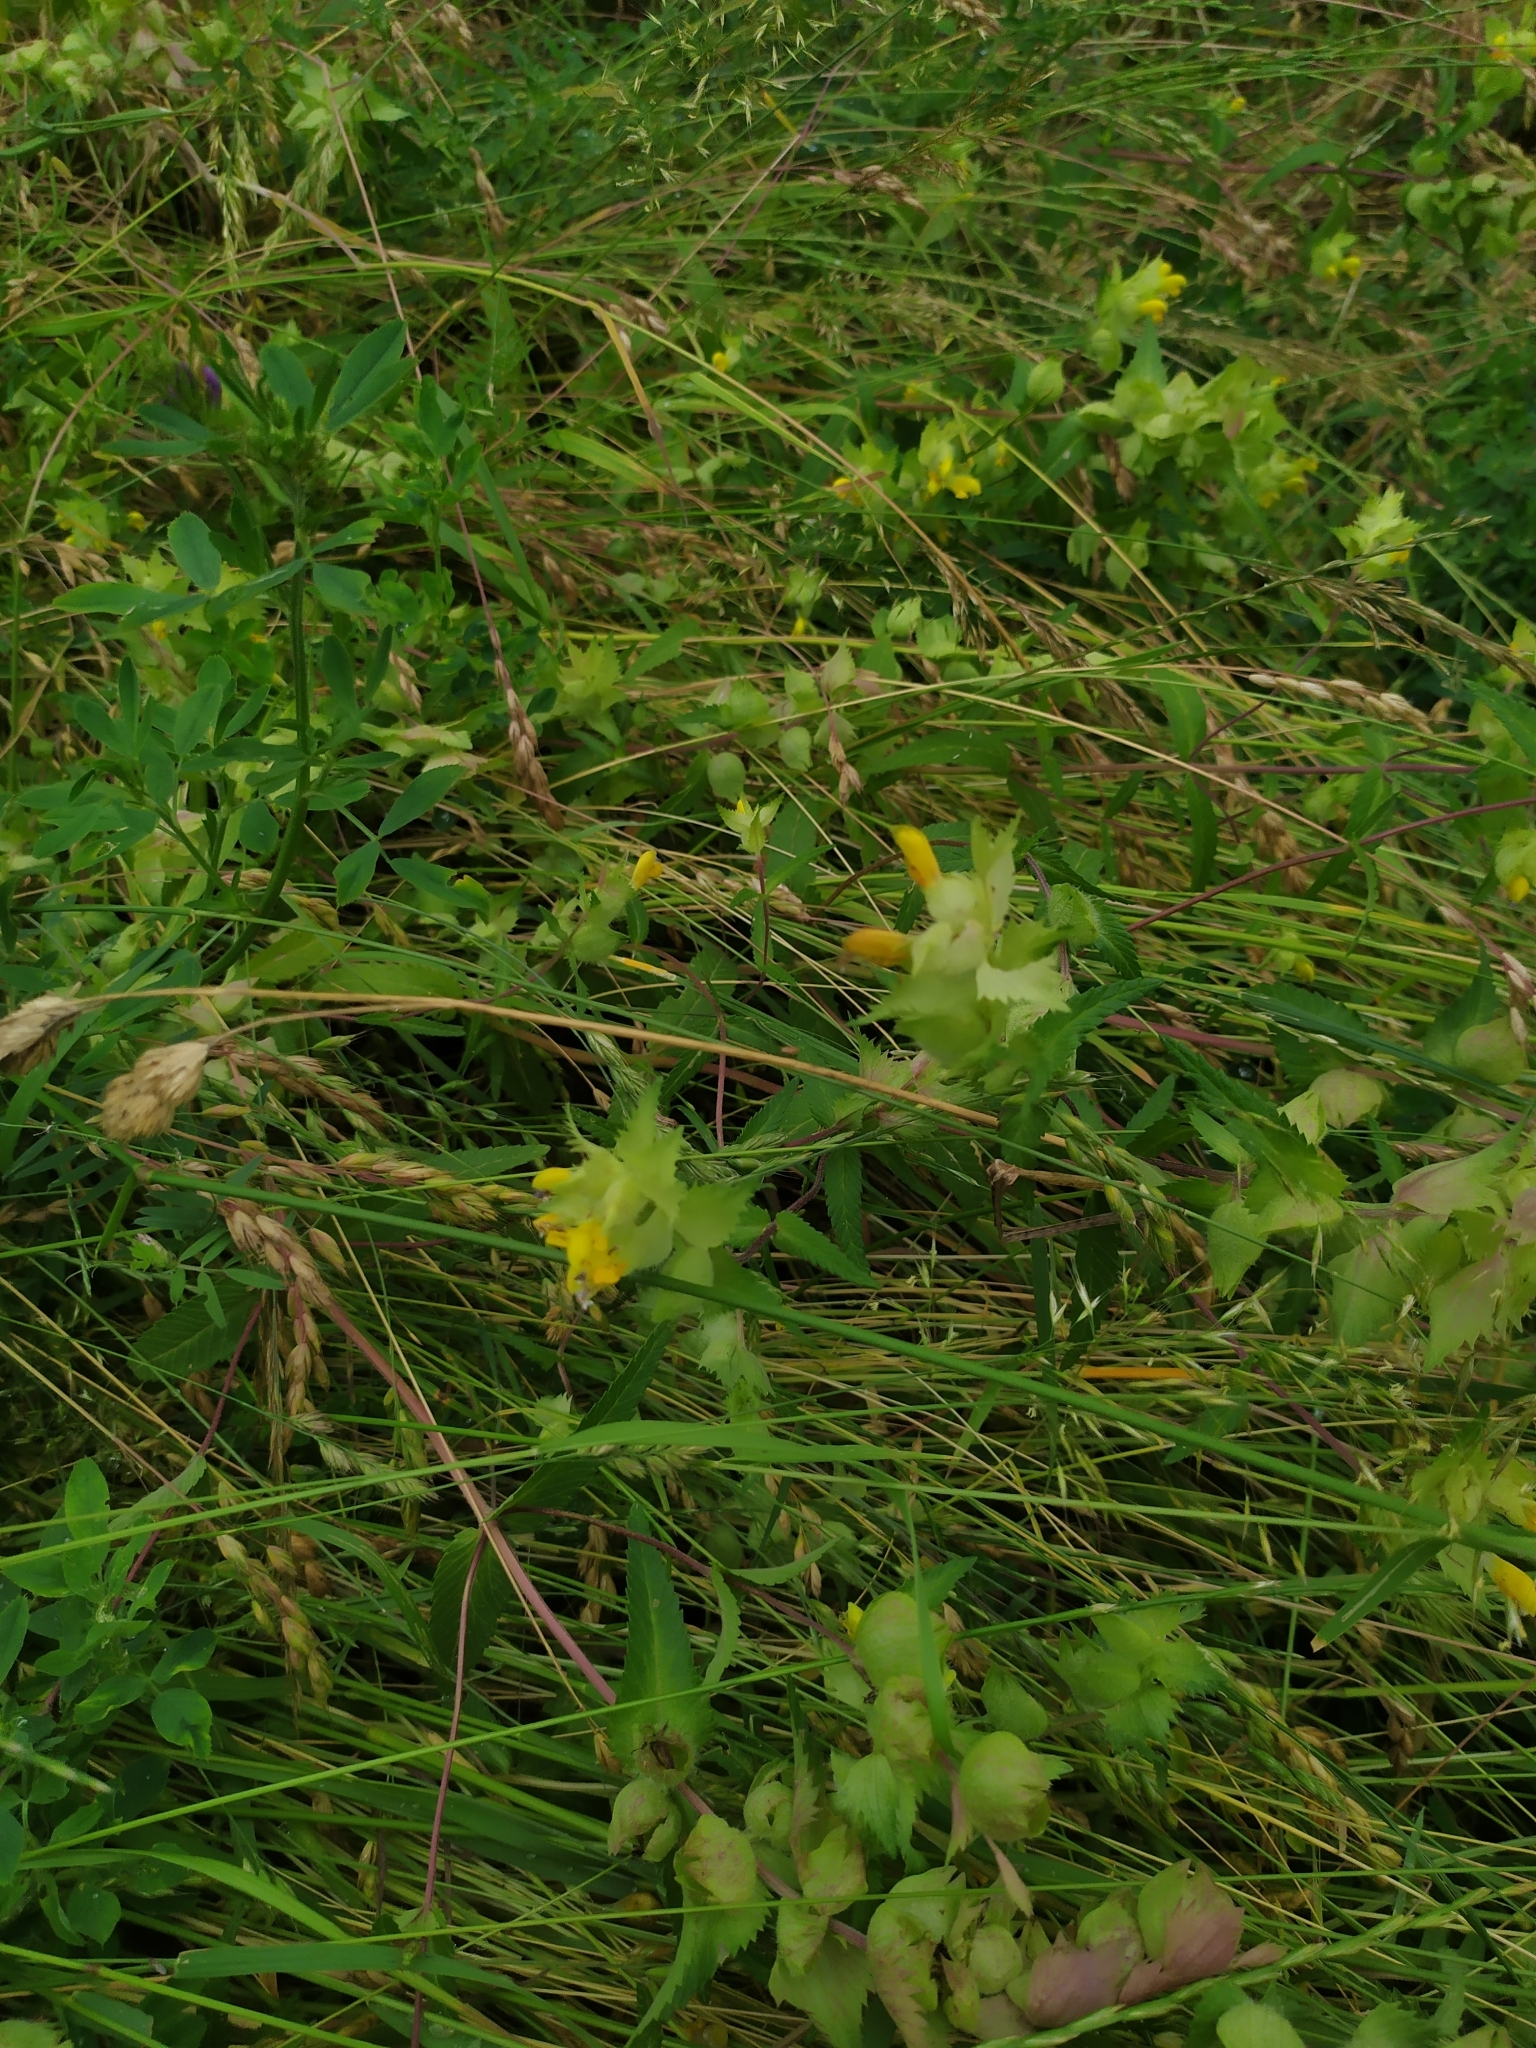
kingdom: Plantae
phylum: Tracheophyta
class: Magnoliopsida
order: Lamiales
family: Orobanchaceae
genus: Rhinanthus
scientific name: Rhinanthus alectorolophus
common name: Greater yellow-rattle
